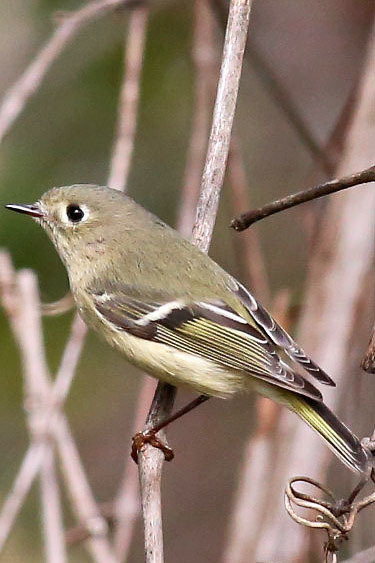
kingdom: Animalia
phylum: Chordata
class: Aves
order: Passeriformes
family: Regulidae
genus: Regulus
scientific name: Regulus calendula
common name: Ruby-crowned kinglet
